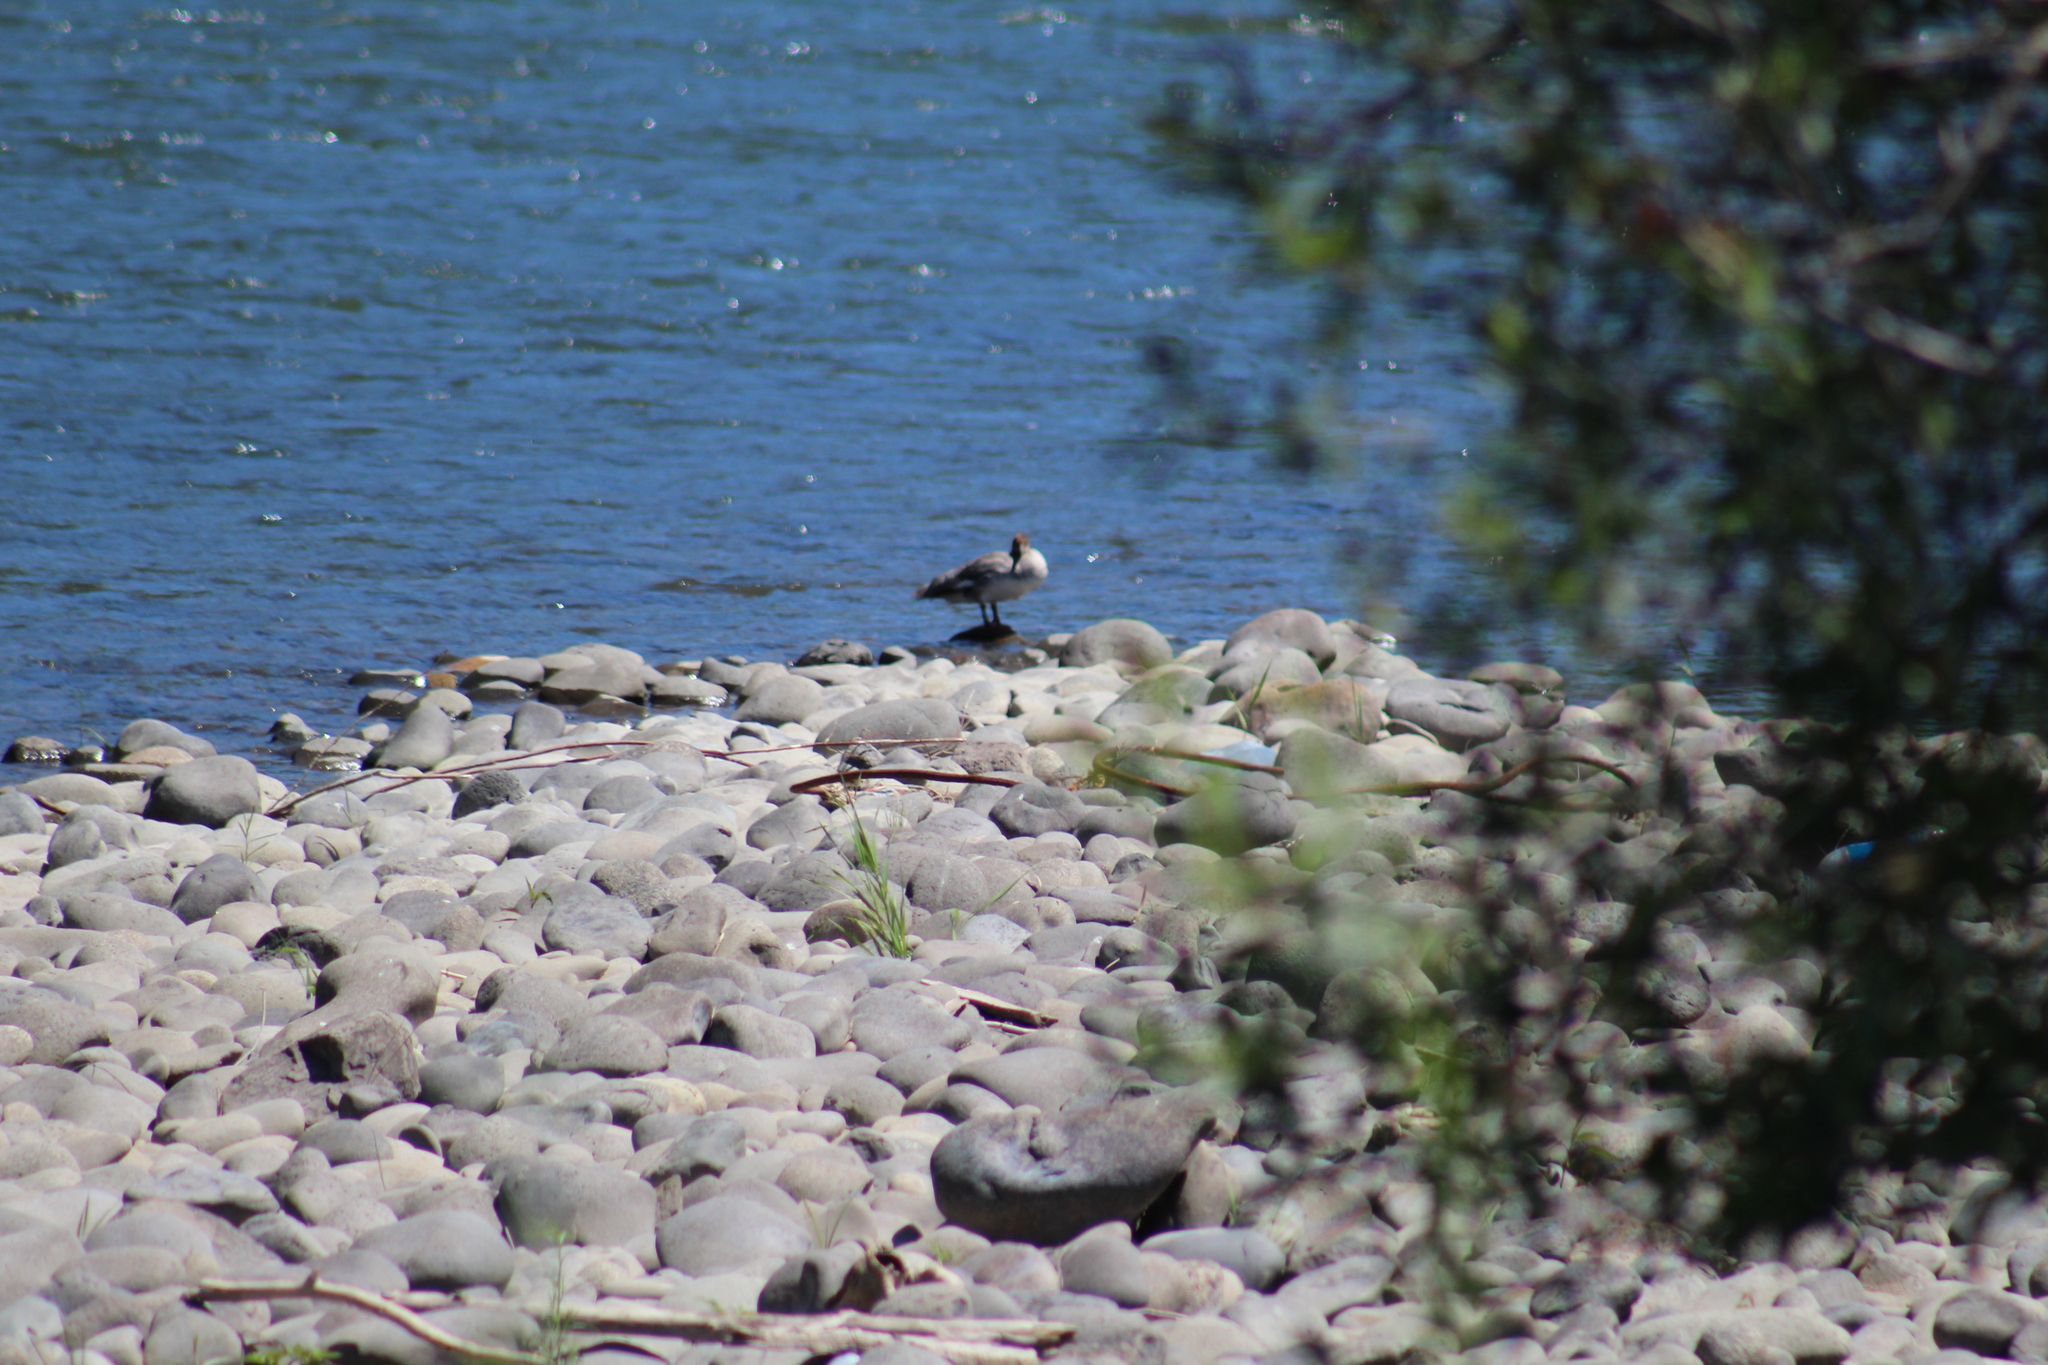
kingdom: Animalia
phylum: Chordata
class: Aves
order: Anseriformes
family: Anatidae
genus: Mergus
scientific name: Mergus merganser
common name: Common merganser
